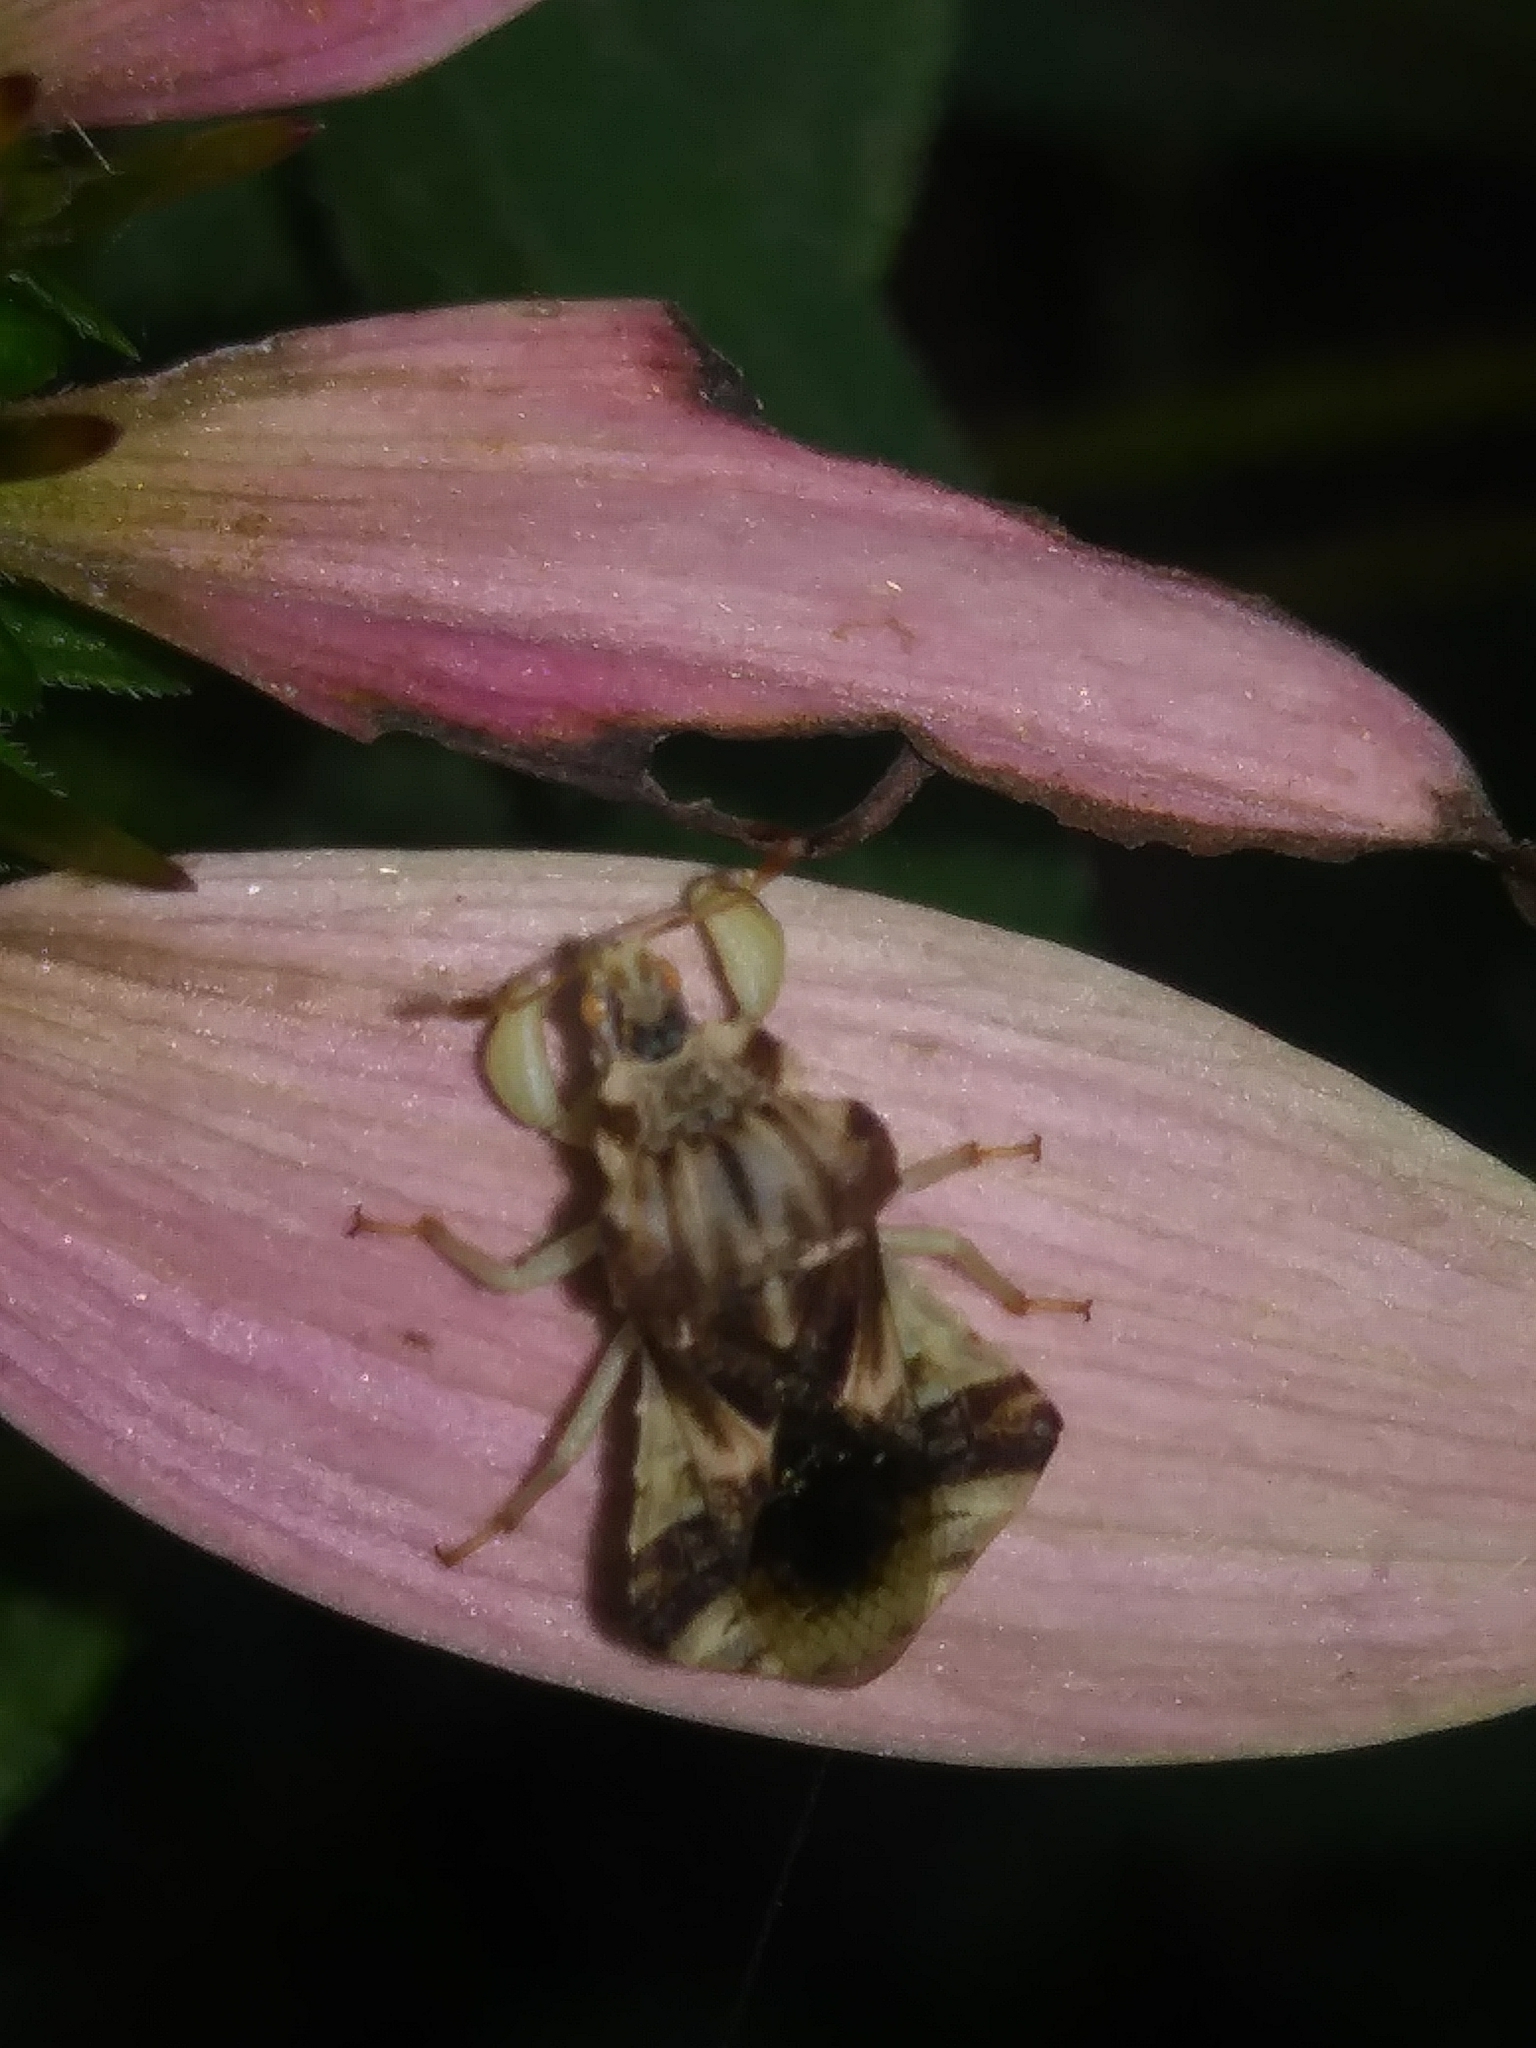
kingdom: Animalia
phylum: Arthropoda
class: Insecta
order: Hemiptera
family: Reduviidae
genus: Phymata
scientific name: Phymata fasciata
